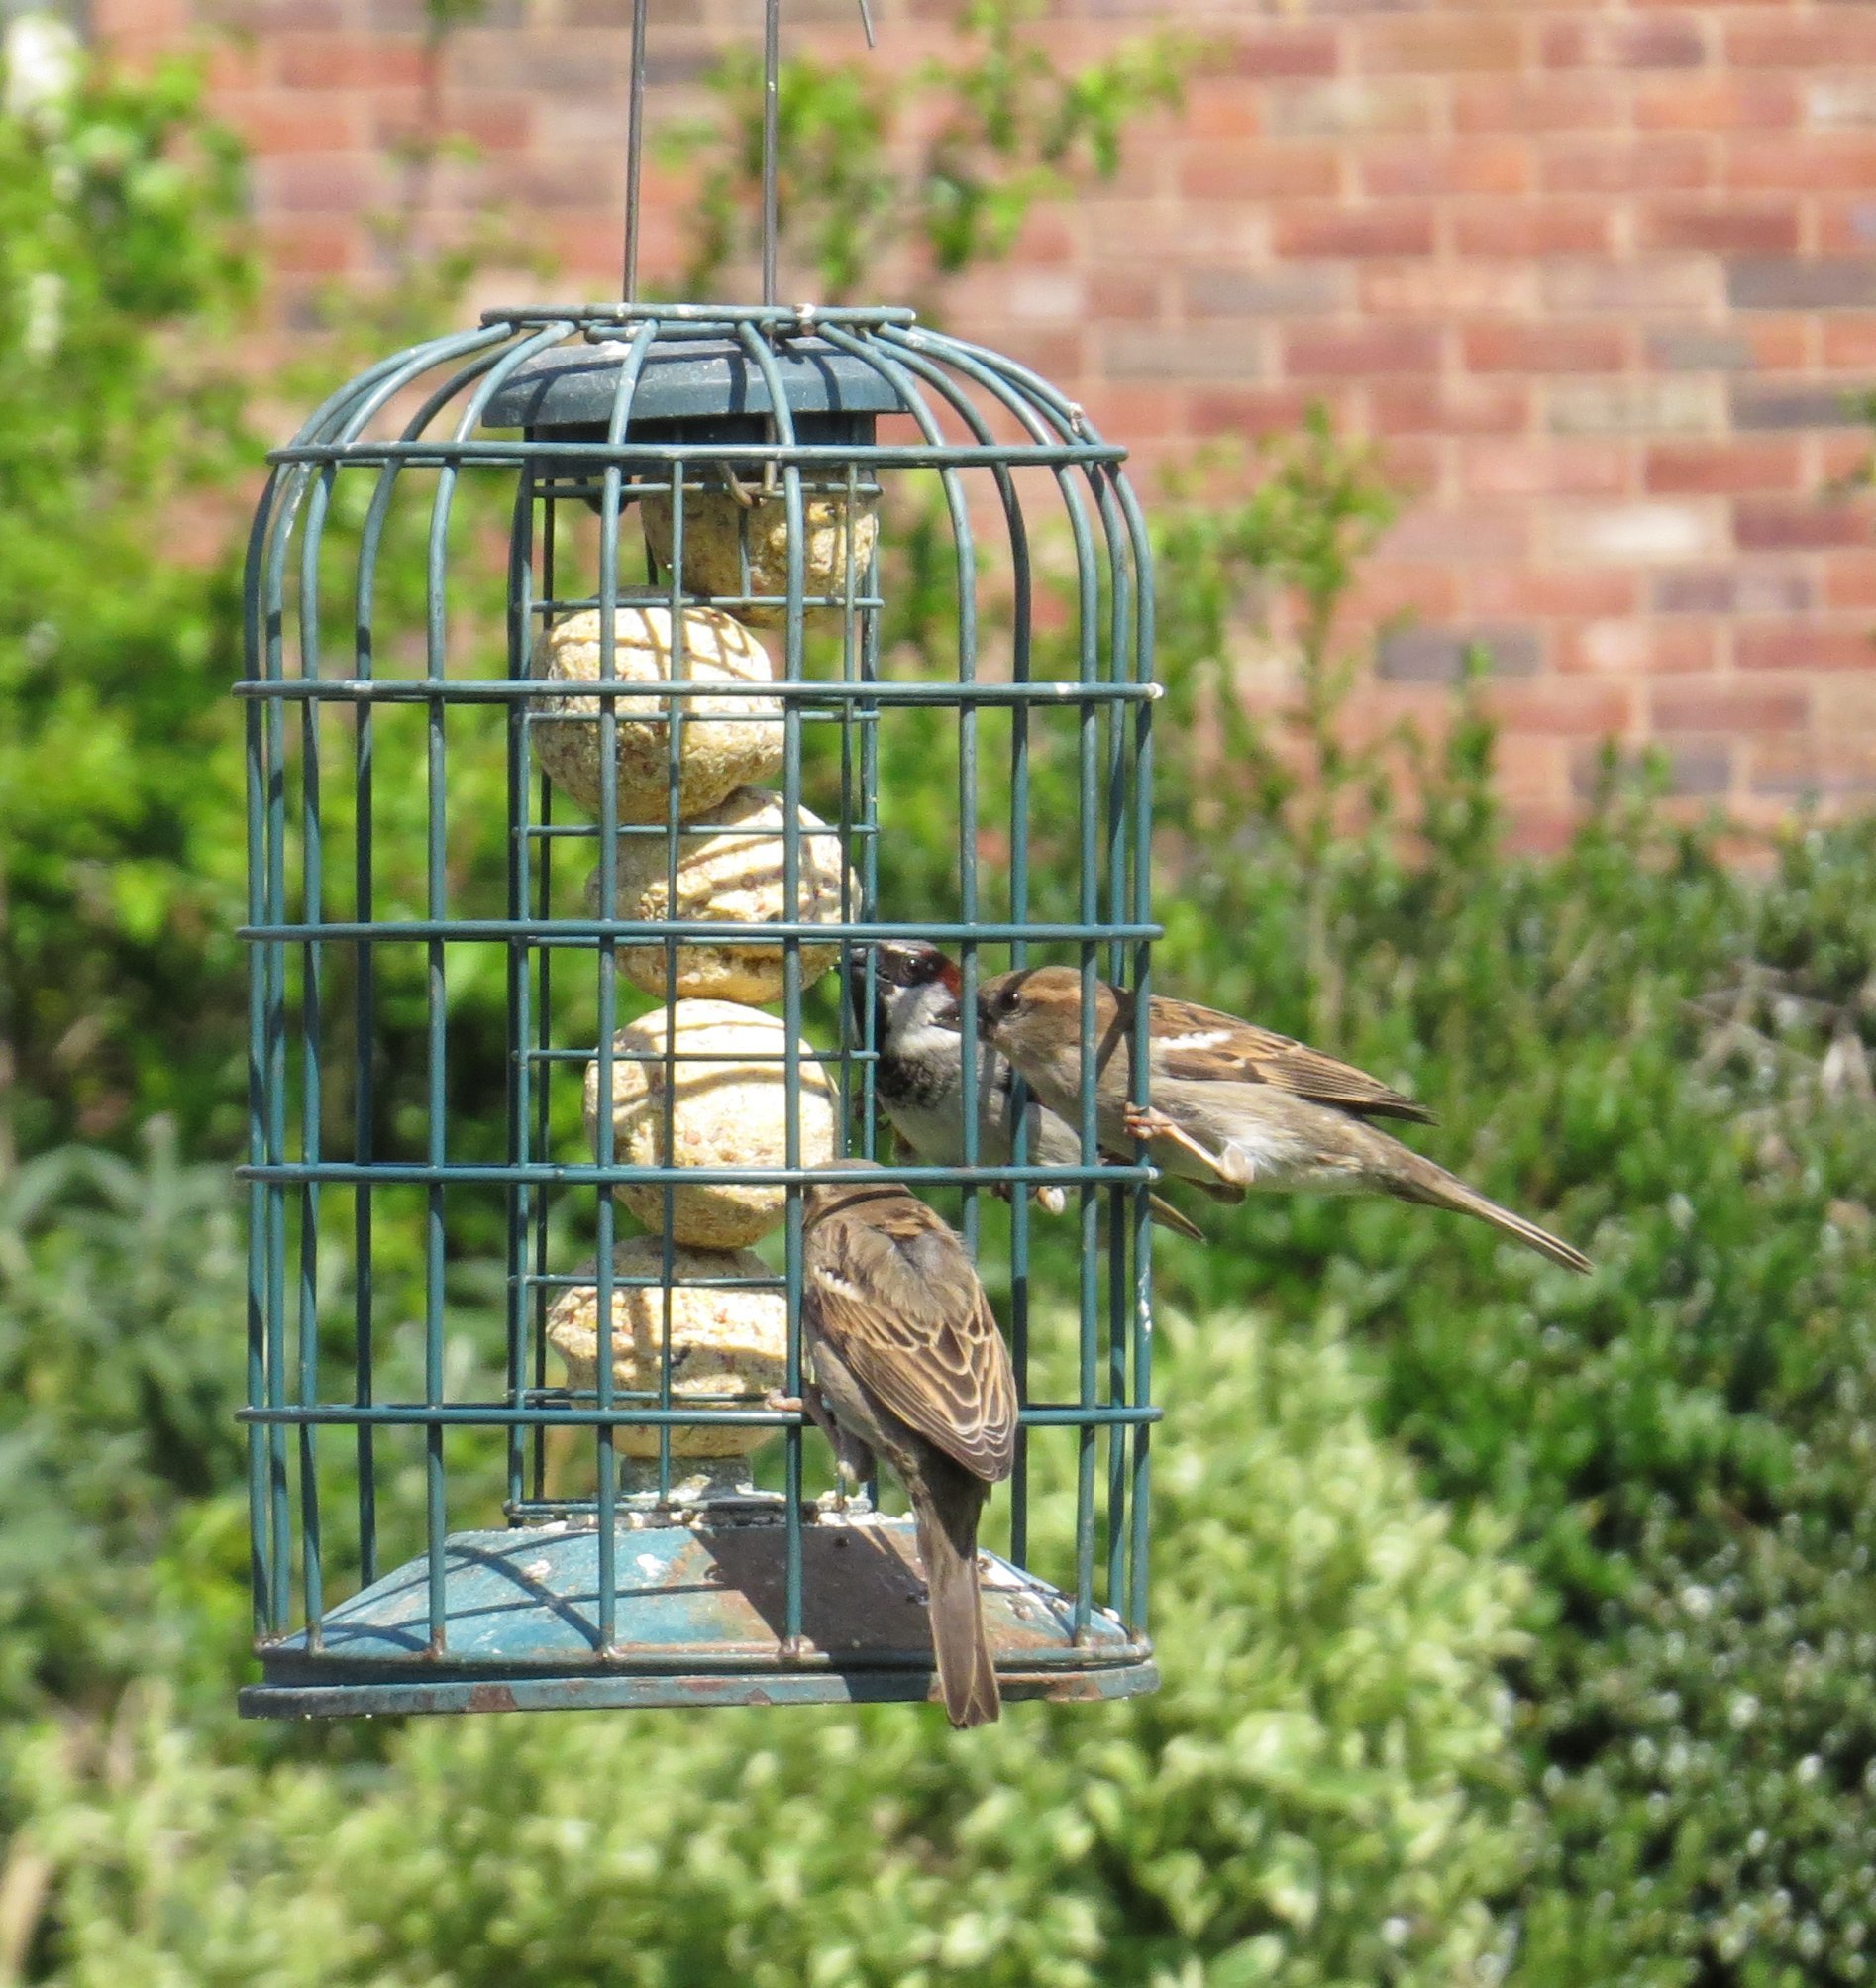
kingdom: Animalia
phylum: Chordata
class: Aves
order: Passeriformes
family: Passeridae
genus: Passer
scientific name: Passer domesticus
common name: House sparrow
